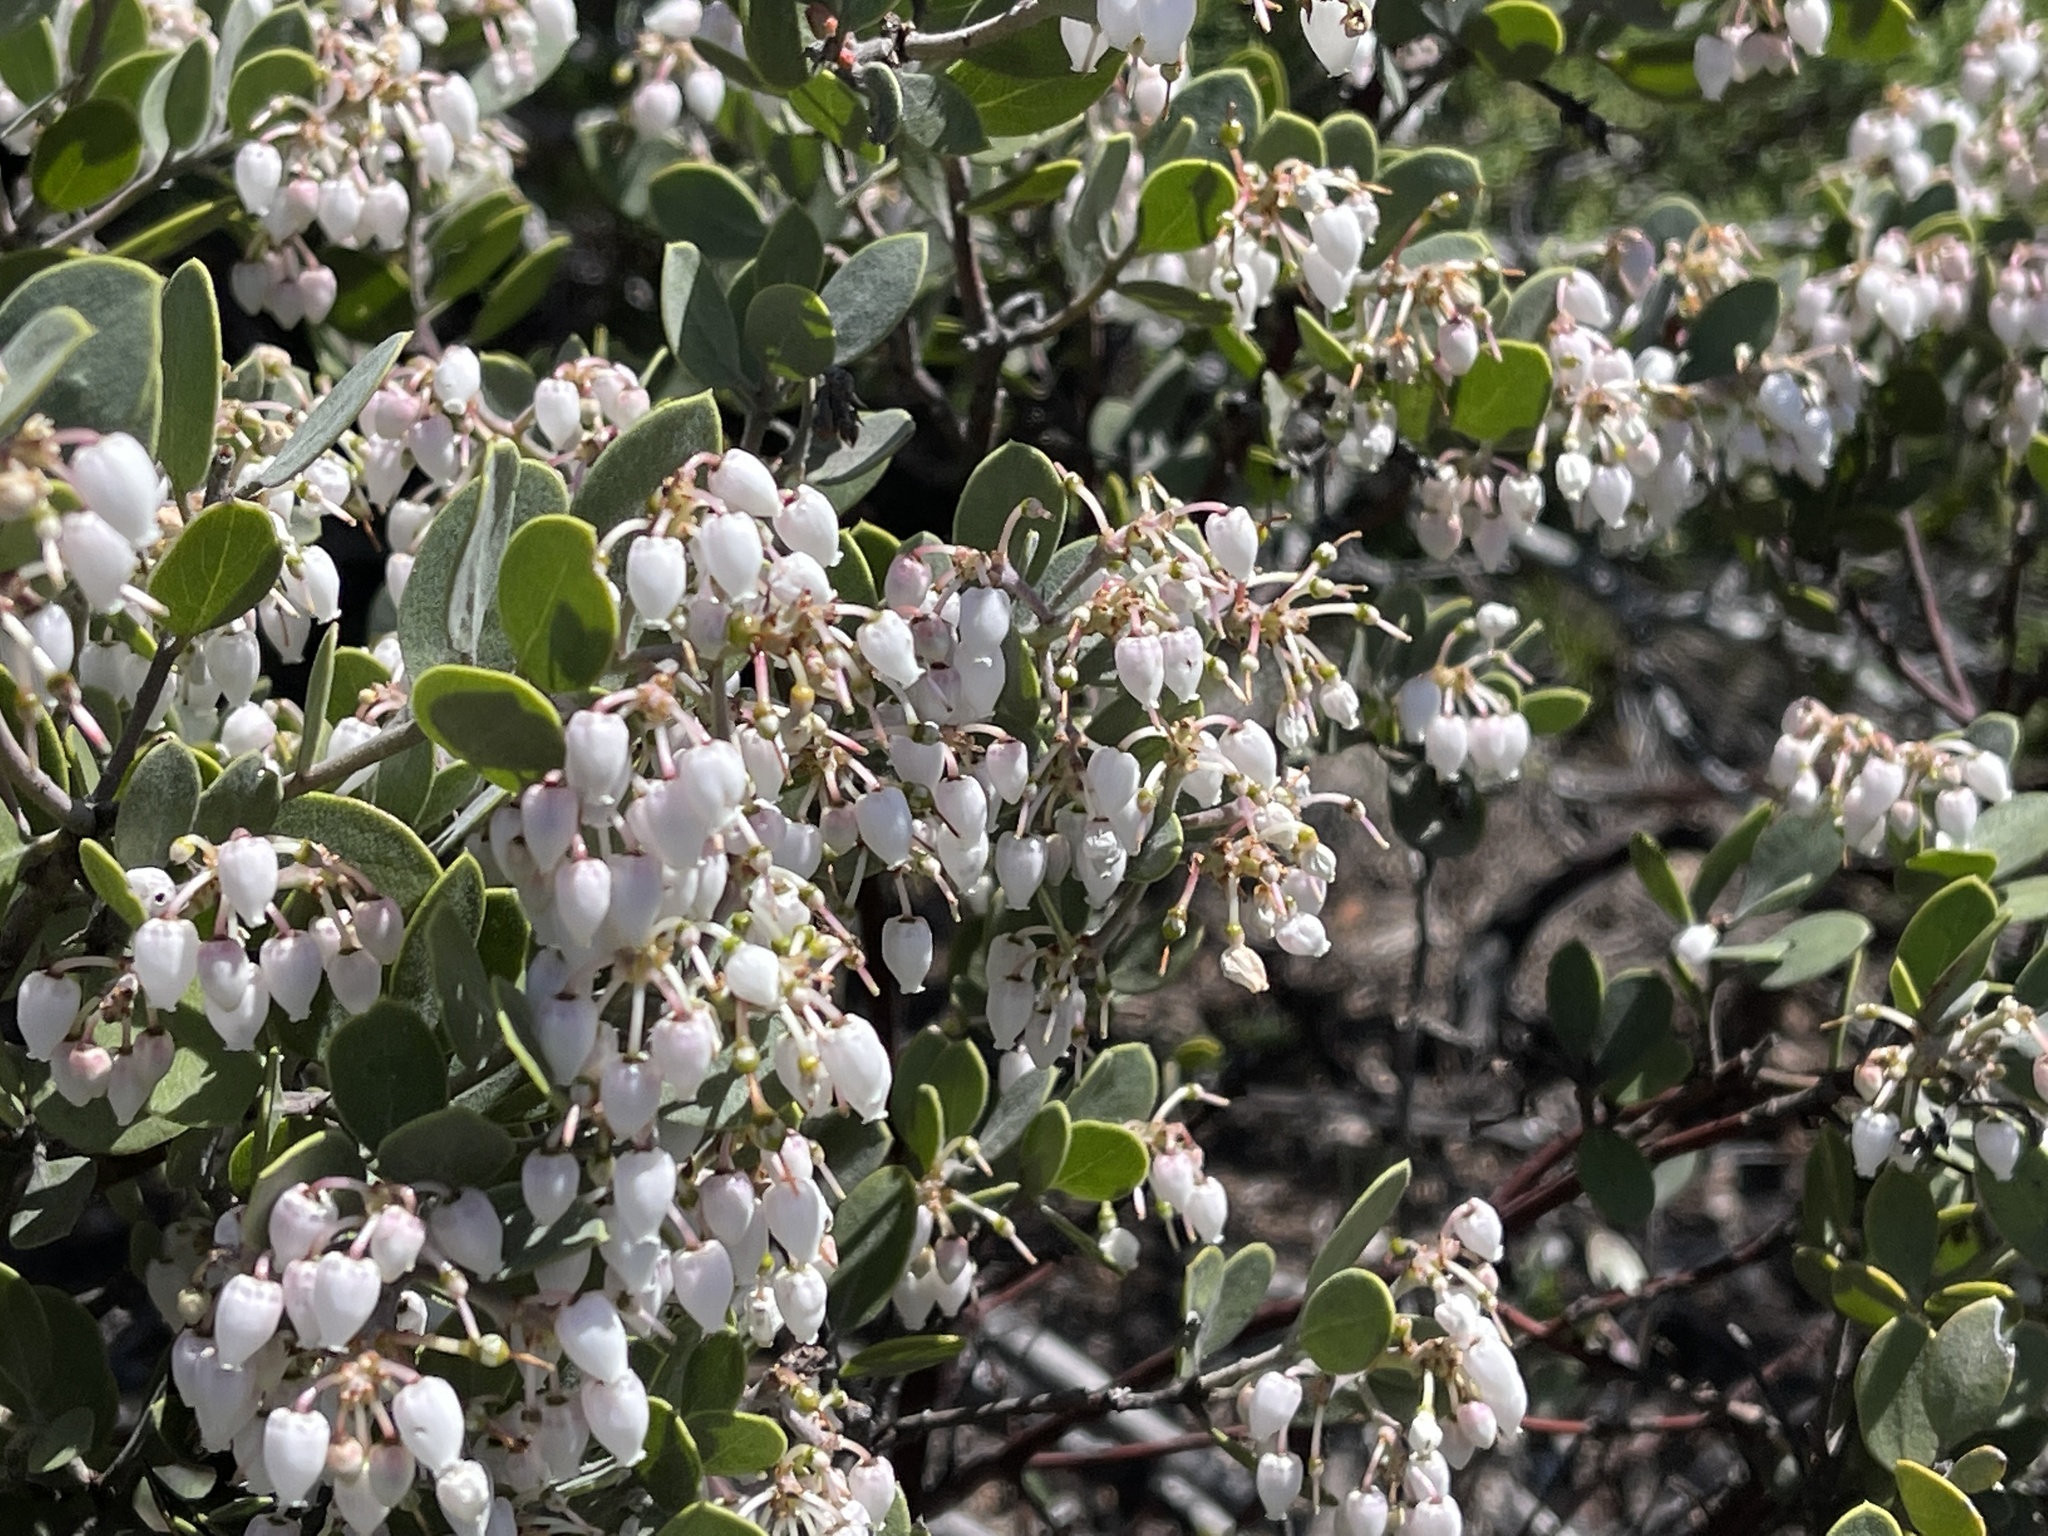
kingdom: Plantae
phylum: Tracheophyta
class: Magnoliopsida
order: Ericales
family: Ericaceae
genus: Arctostaphylos
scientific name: Arctostaphylos montana
